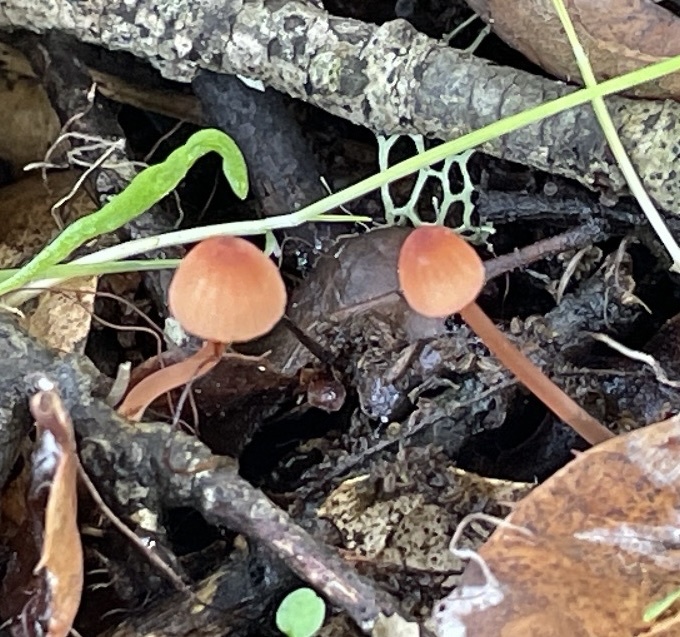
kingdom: Fungi
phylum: Basidiomycota
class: Agaricomycetes
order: Agaricales
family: Mycenaceae
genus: Mycena
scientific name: Mycena
